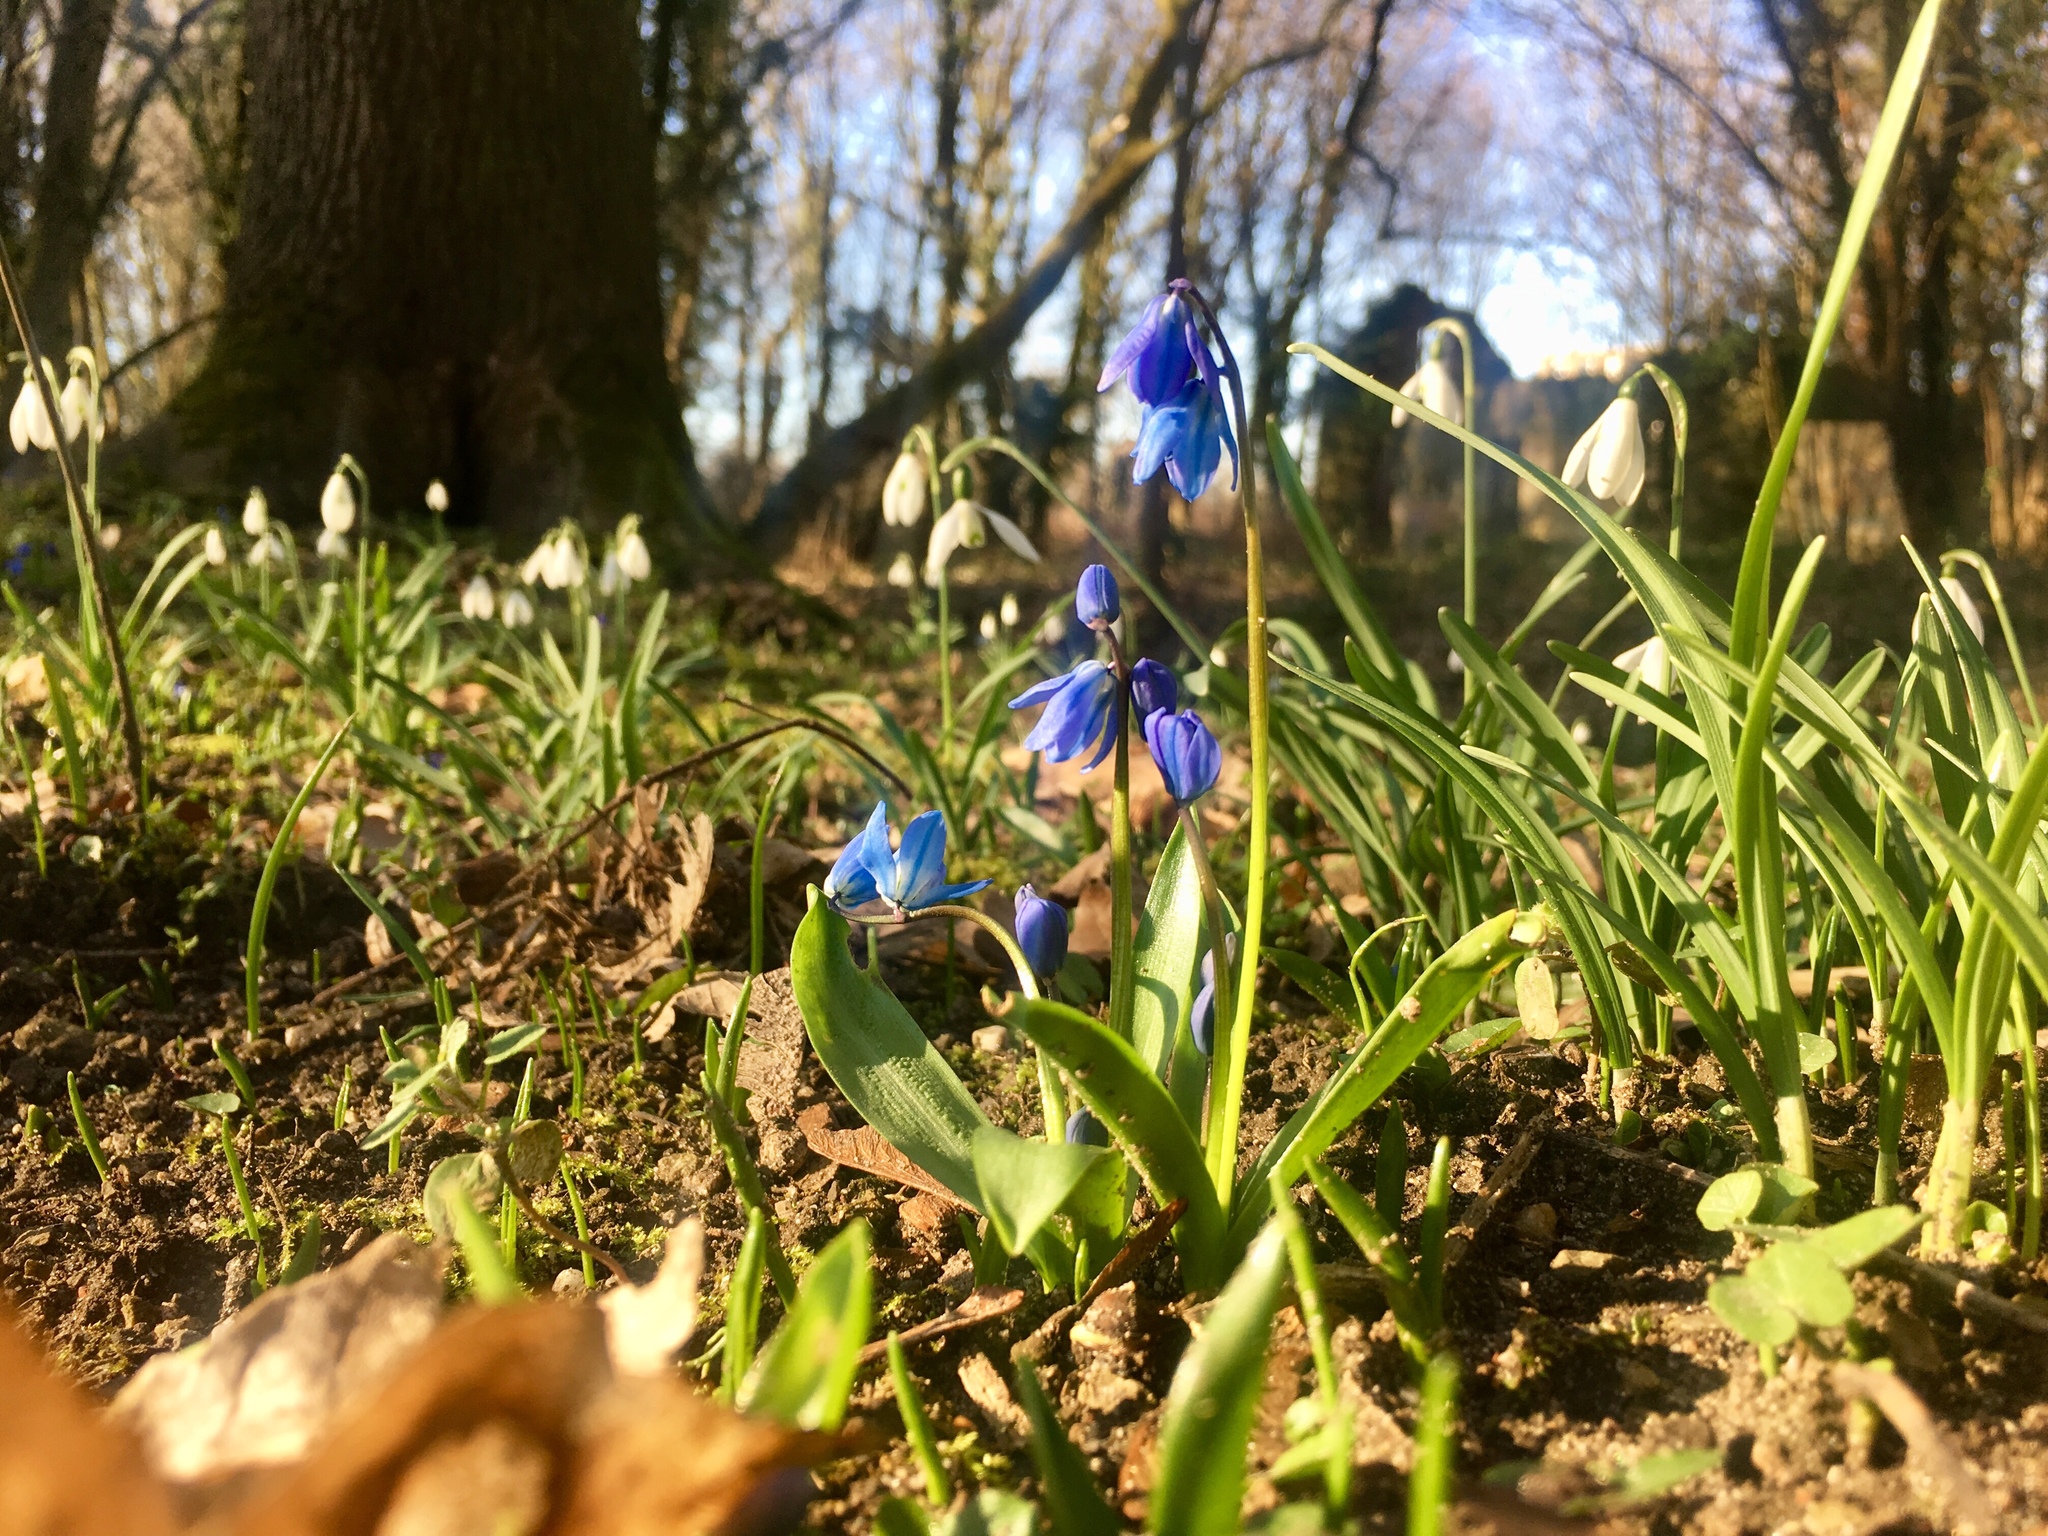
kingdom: Plantae
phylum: Tracheophyta
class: Liliopsida
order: Asparagales
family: Asparagaceae
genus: Scilla
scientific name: Scilla siberica
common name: Siberian squill
